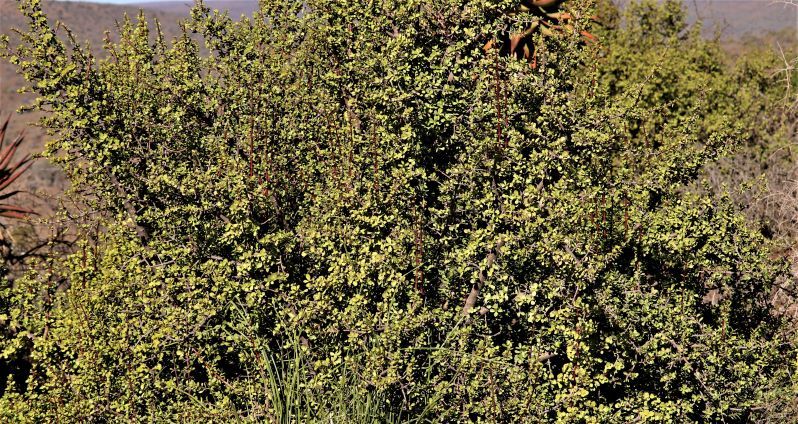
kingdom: Plantae
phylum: Tracheophyta
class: Magnoliopsida
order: Caryophyllales
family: Didiereaceae
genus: Portulacaria
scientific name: Portulacaria afra
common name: Elephant-bush
